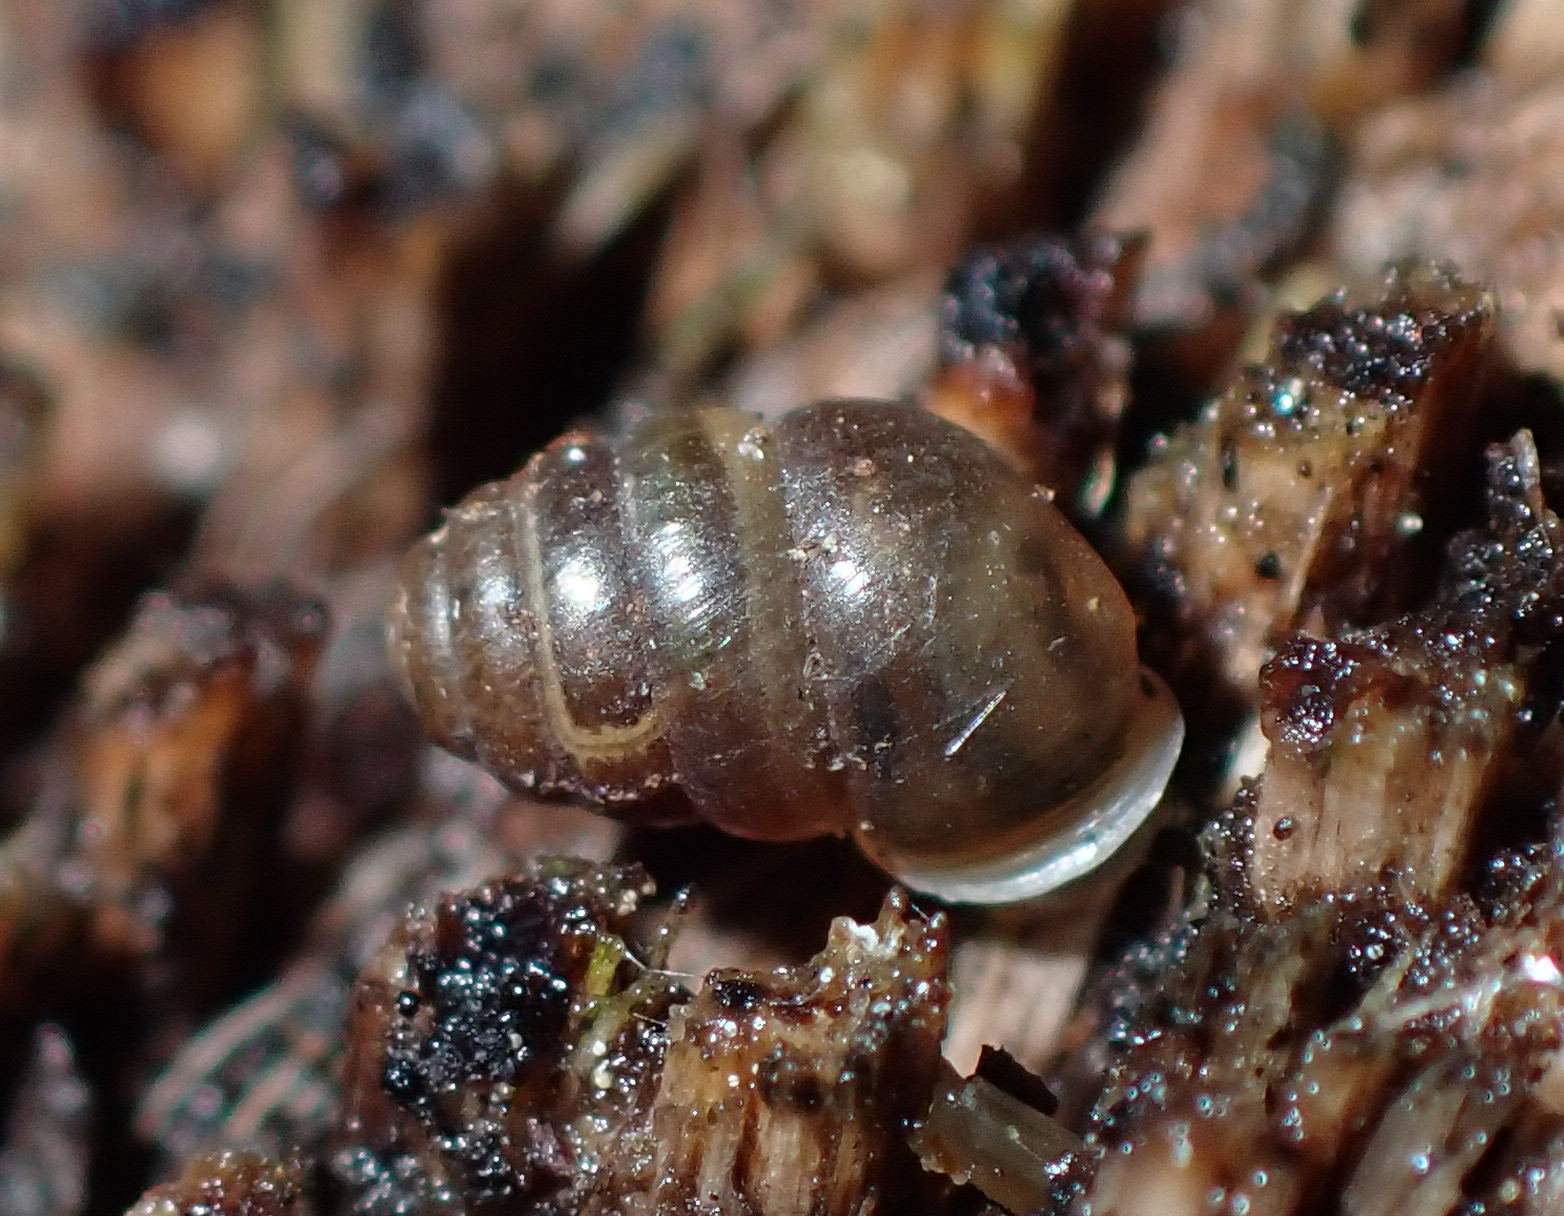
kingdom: Animalia
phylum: Mollusca
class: Gastropoda
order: Stylommatophora
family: Lauriidae
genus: Lauria
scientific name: Lauria cylindracea
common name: Common chrysalis snail
